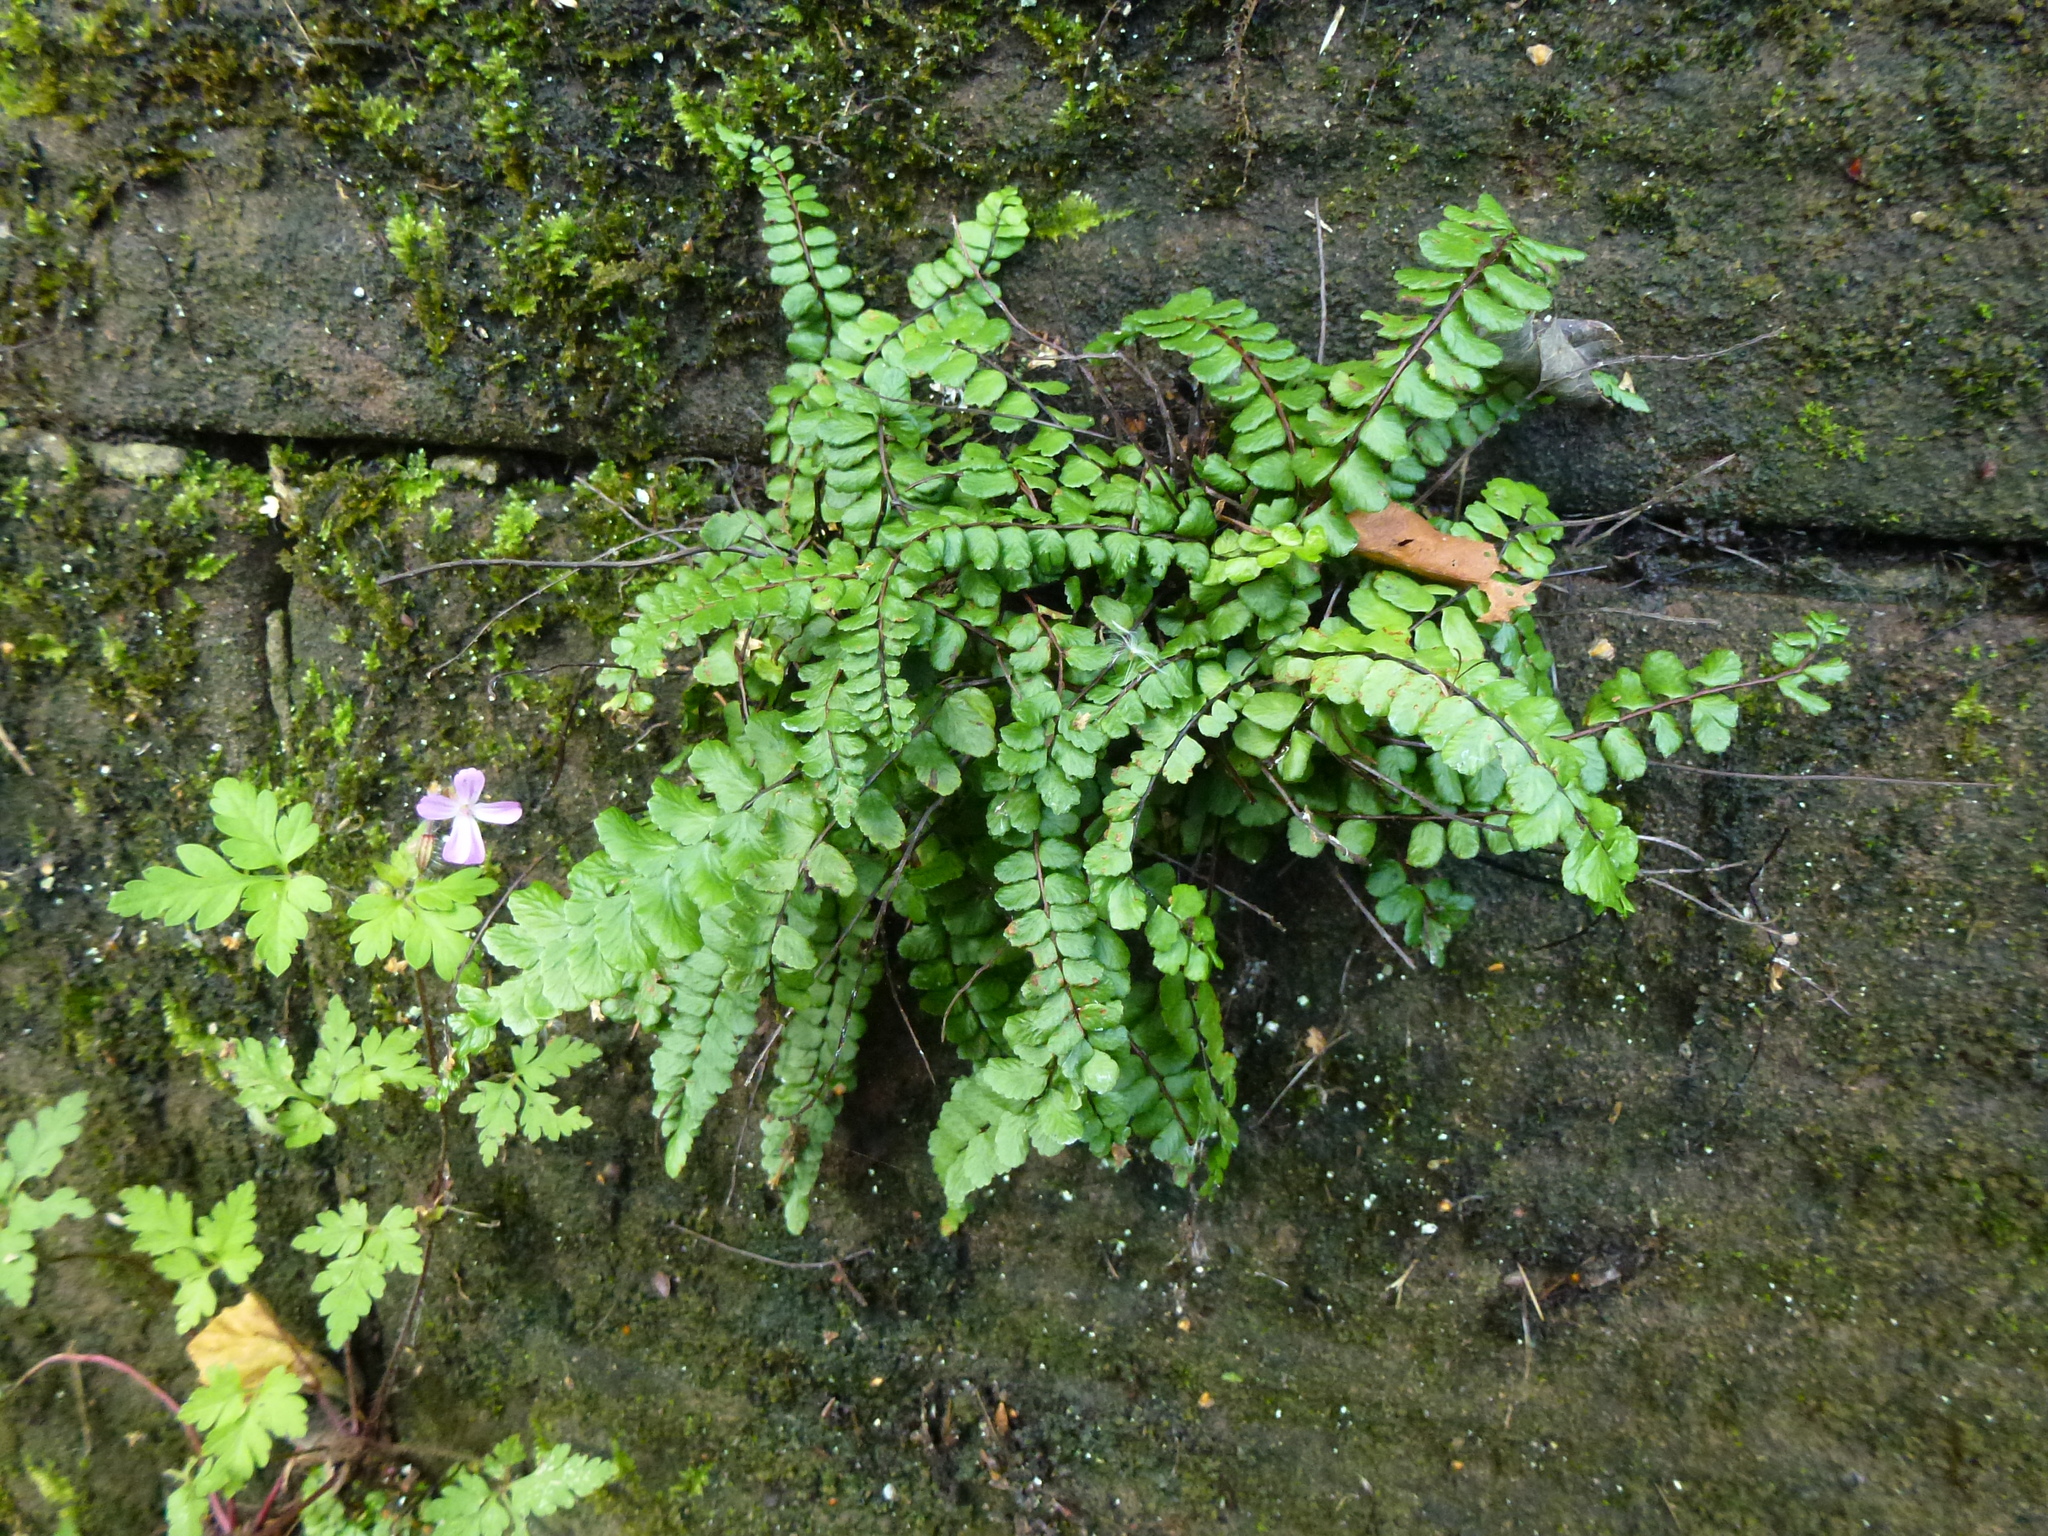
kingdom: Plantae
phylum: Tracheophyta
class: Polypodiopsida
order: Polypodiales
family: Aspleniaceae
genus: Asplenium
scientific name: Asplenium trichomanes
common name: Maidenhair spleenwort
